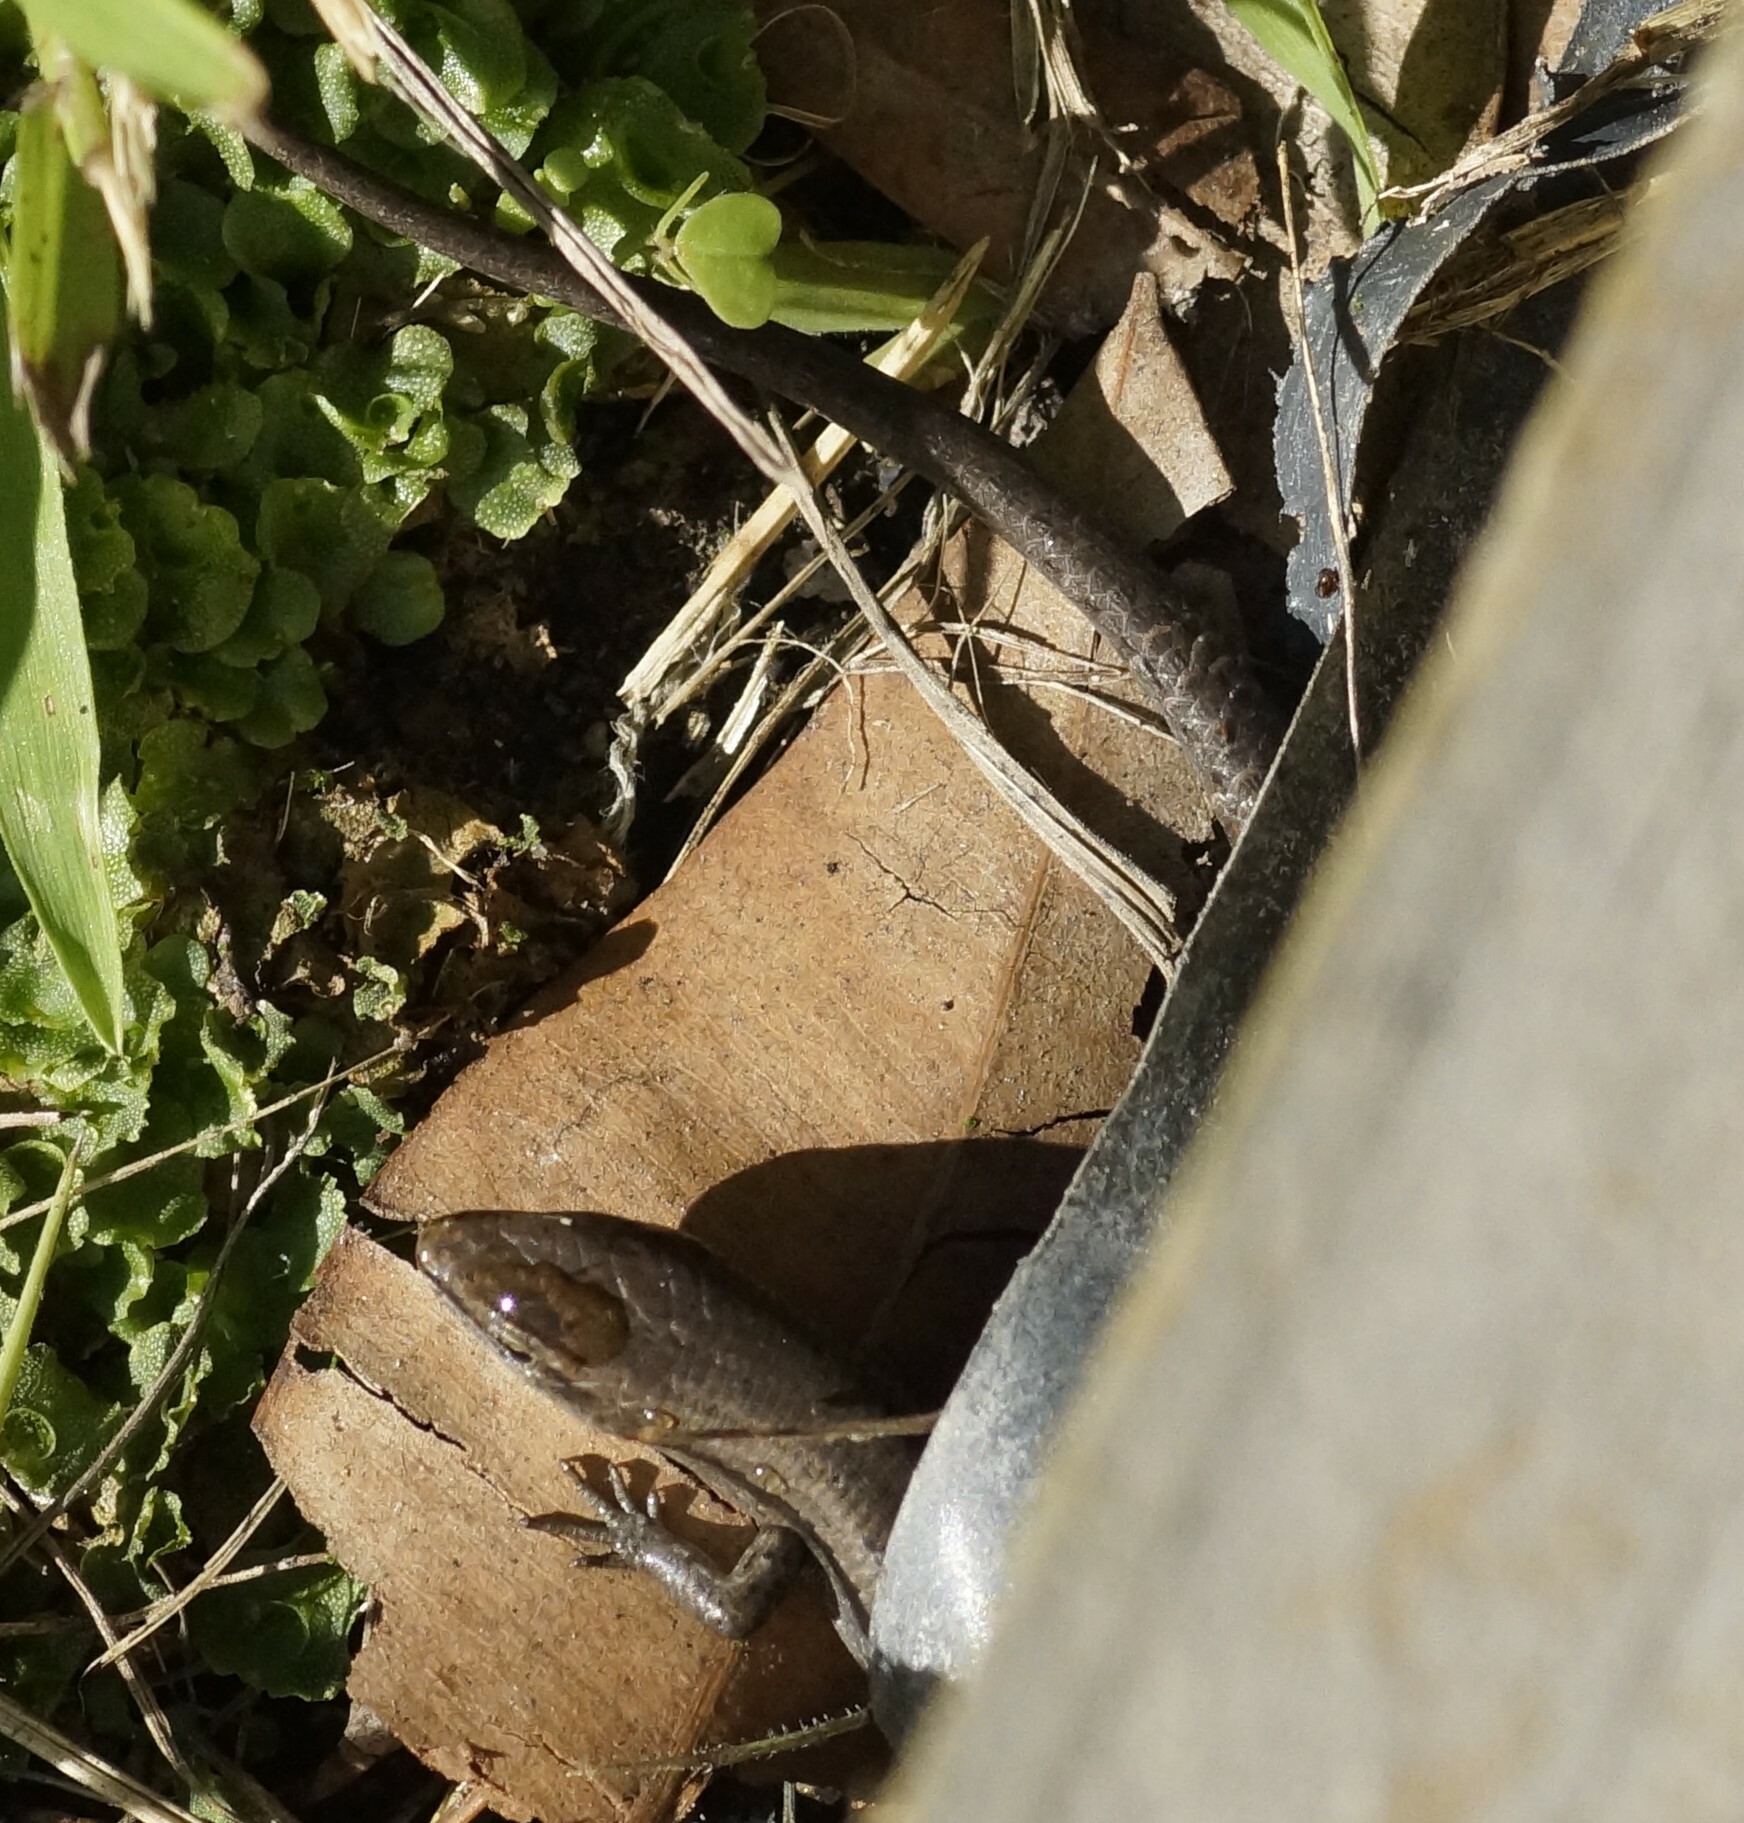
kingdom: Animalia
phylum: Chordata
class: Squamata
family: Scincidae
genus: Lampropholis
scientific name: Lampropholis guichenoti
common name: Garden skink
